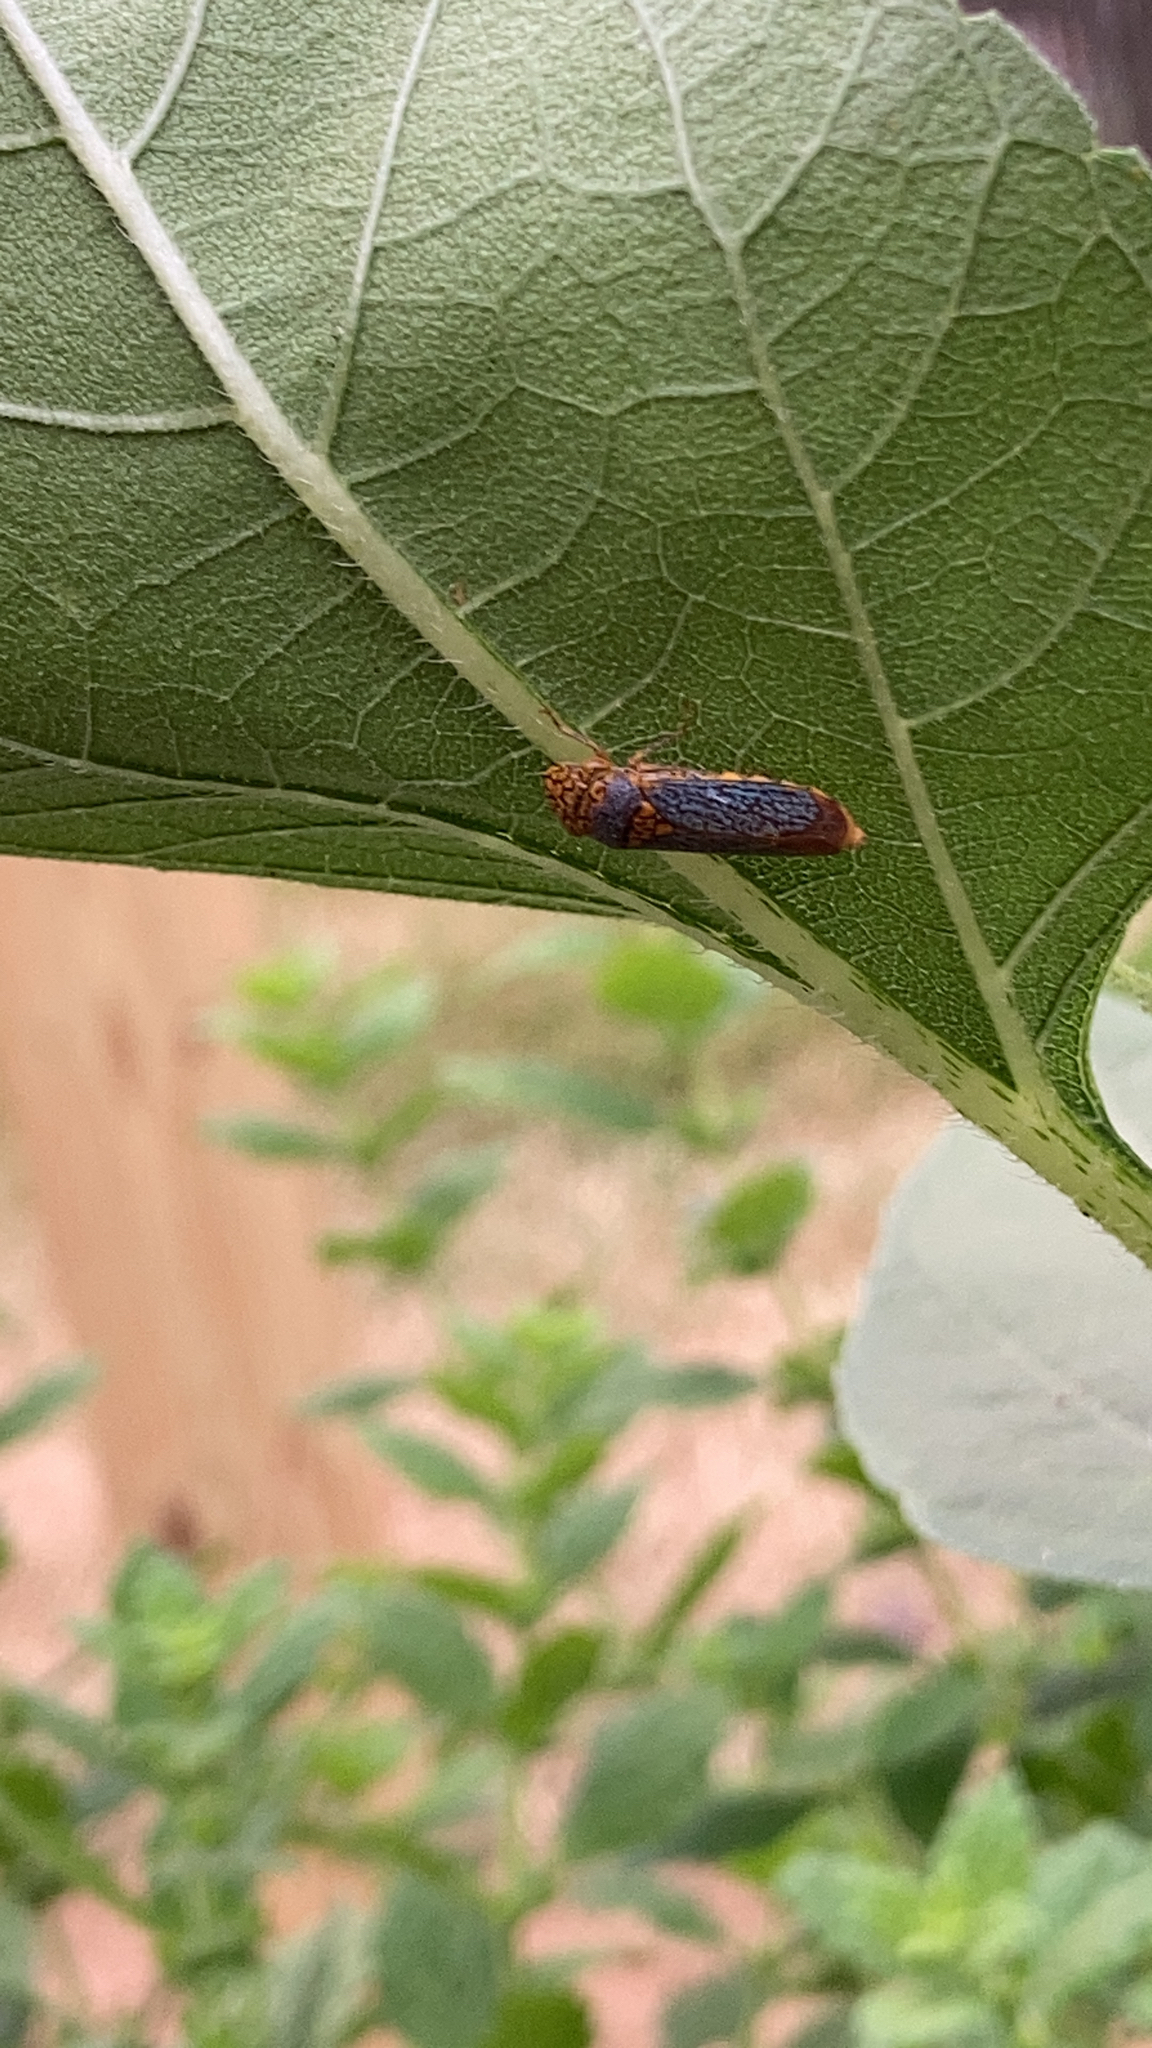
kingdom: Animalia
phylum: Arthropoda
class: Insecta
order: Hemiptera
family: Cicadellidae
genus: Oncometopia
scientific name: Oncometopia orbona
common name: Broad-headed sharpshooter
